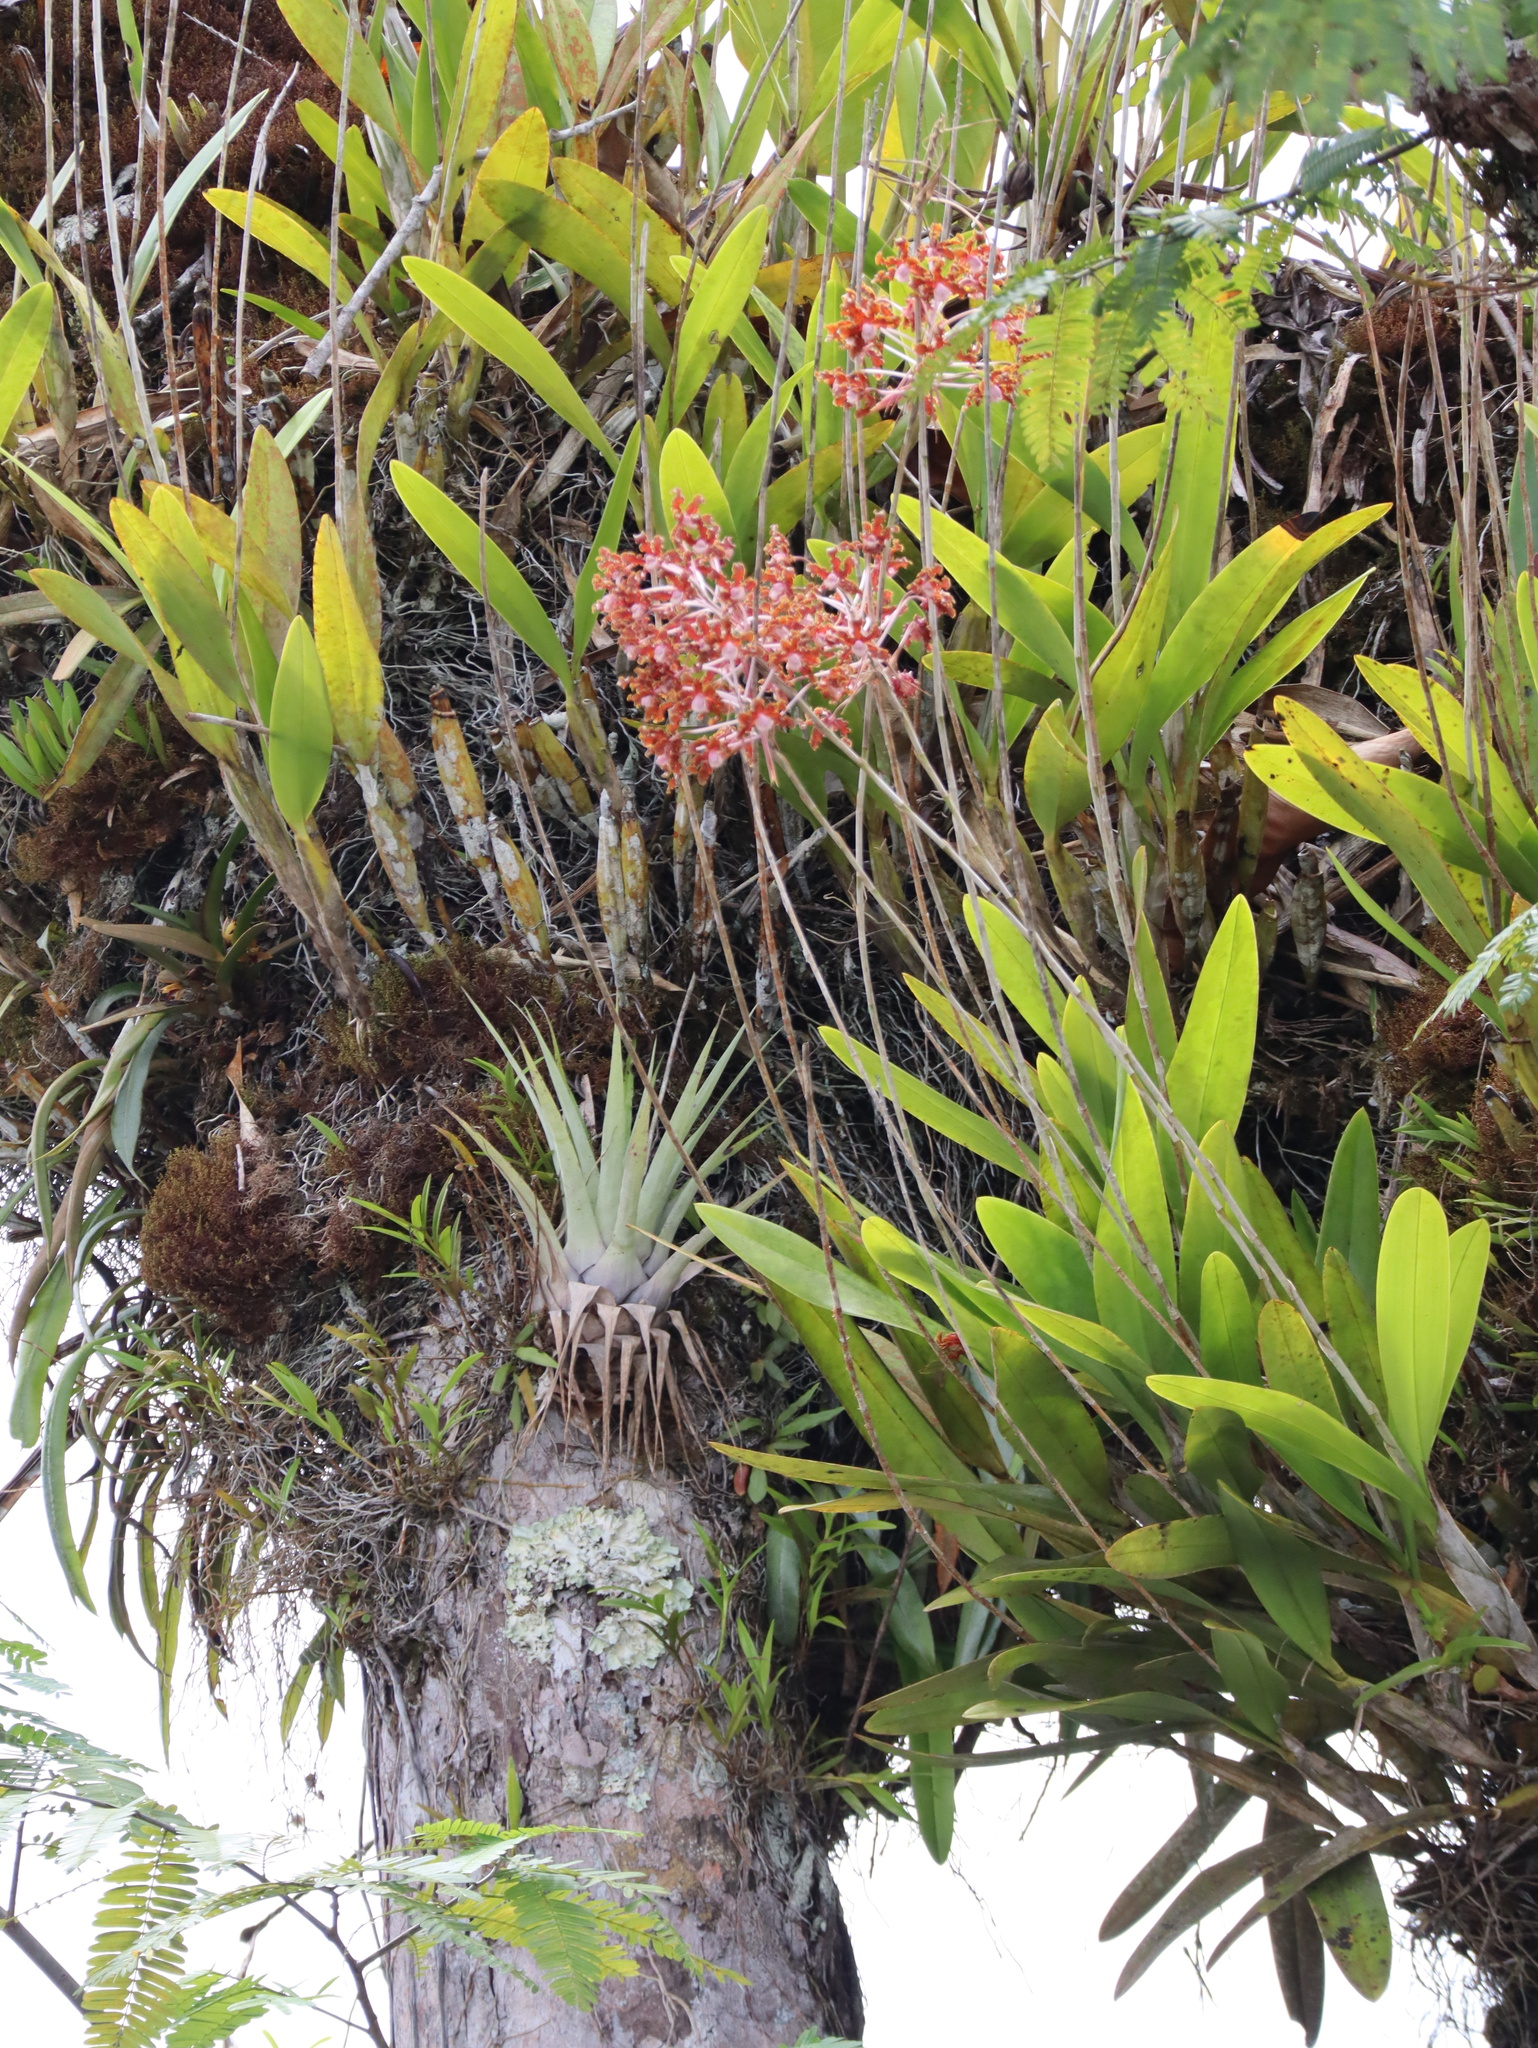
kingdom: Plantae
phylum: Tracheophyta
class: Liliopsida
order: Asparagales
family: Orchidaceae
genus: Laelia
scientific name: Laelia marginata
